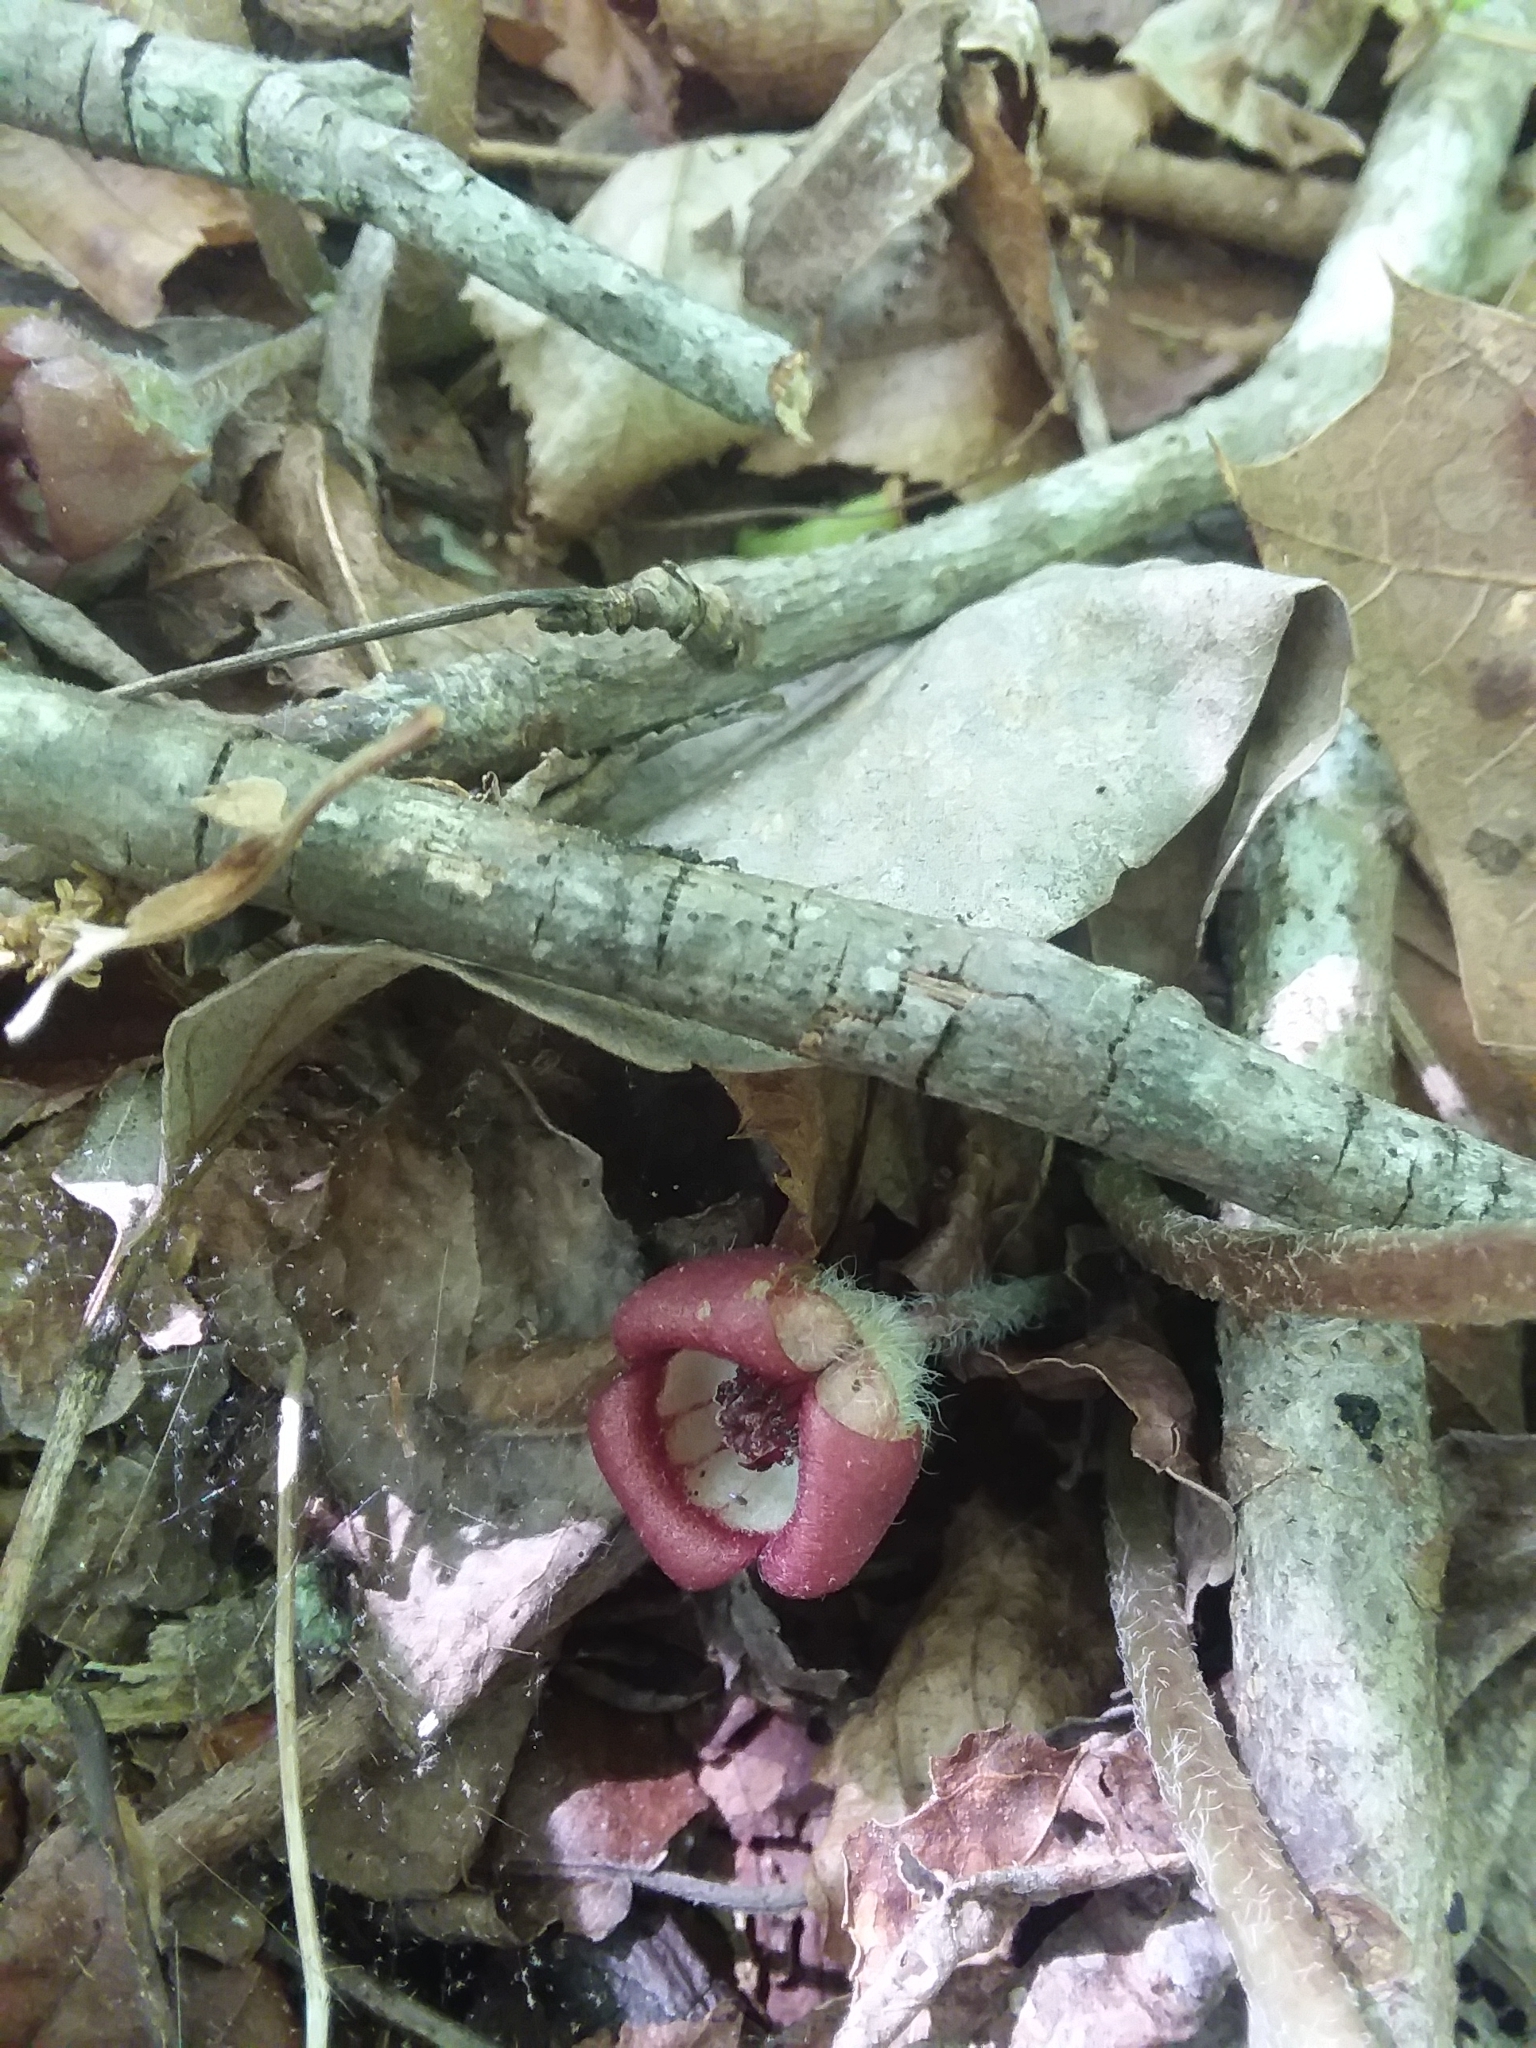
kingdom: Plantae
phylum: Tracheophyta
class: Magnoliopsida
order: Piperales
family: Aristolochiaceae
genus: Asarum
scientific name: Asarum canadense
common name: Wild ginger
